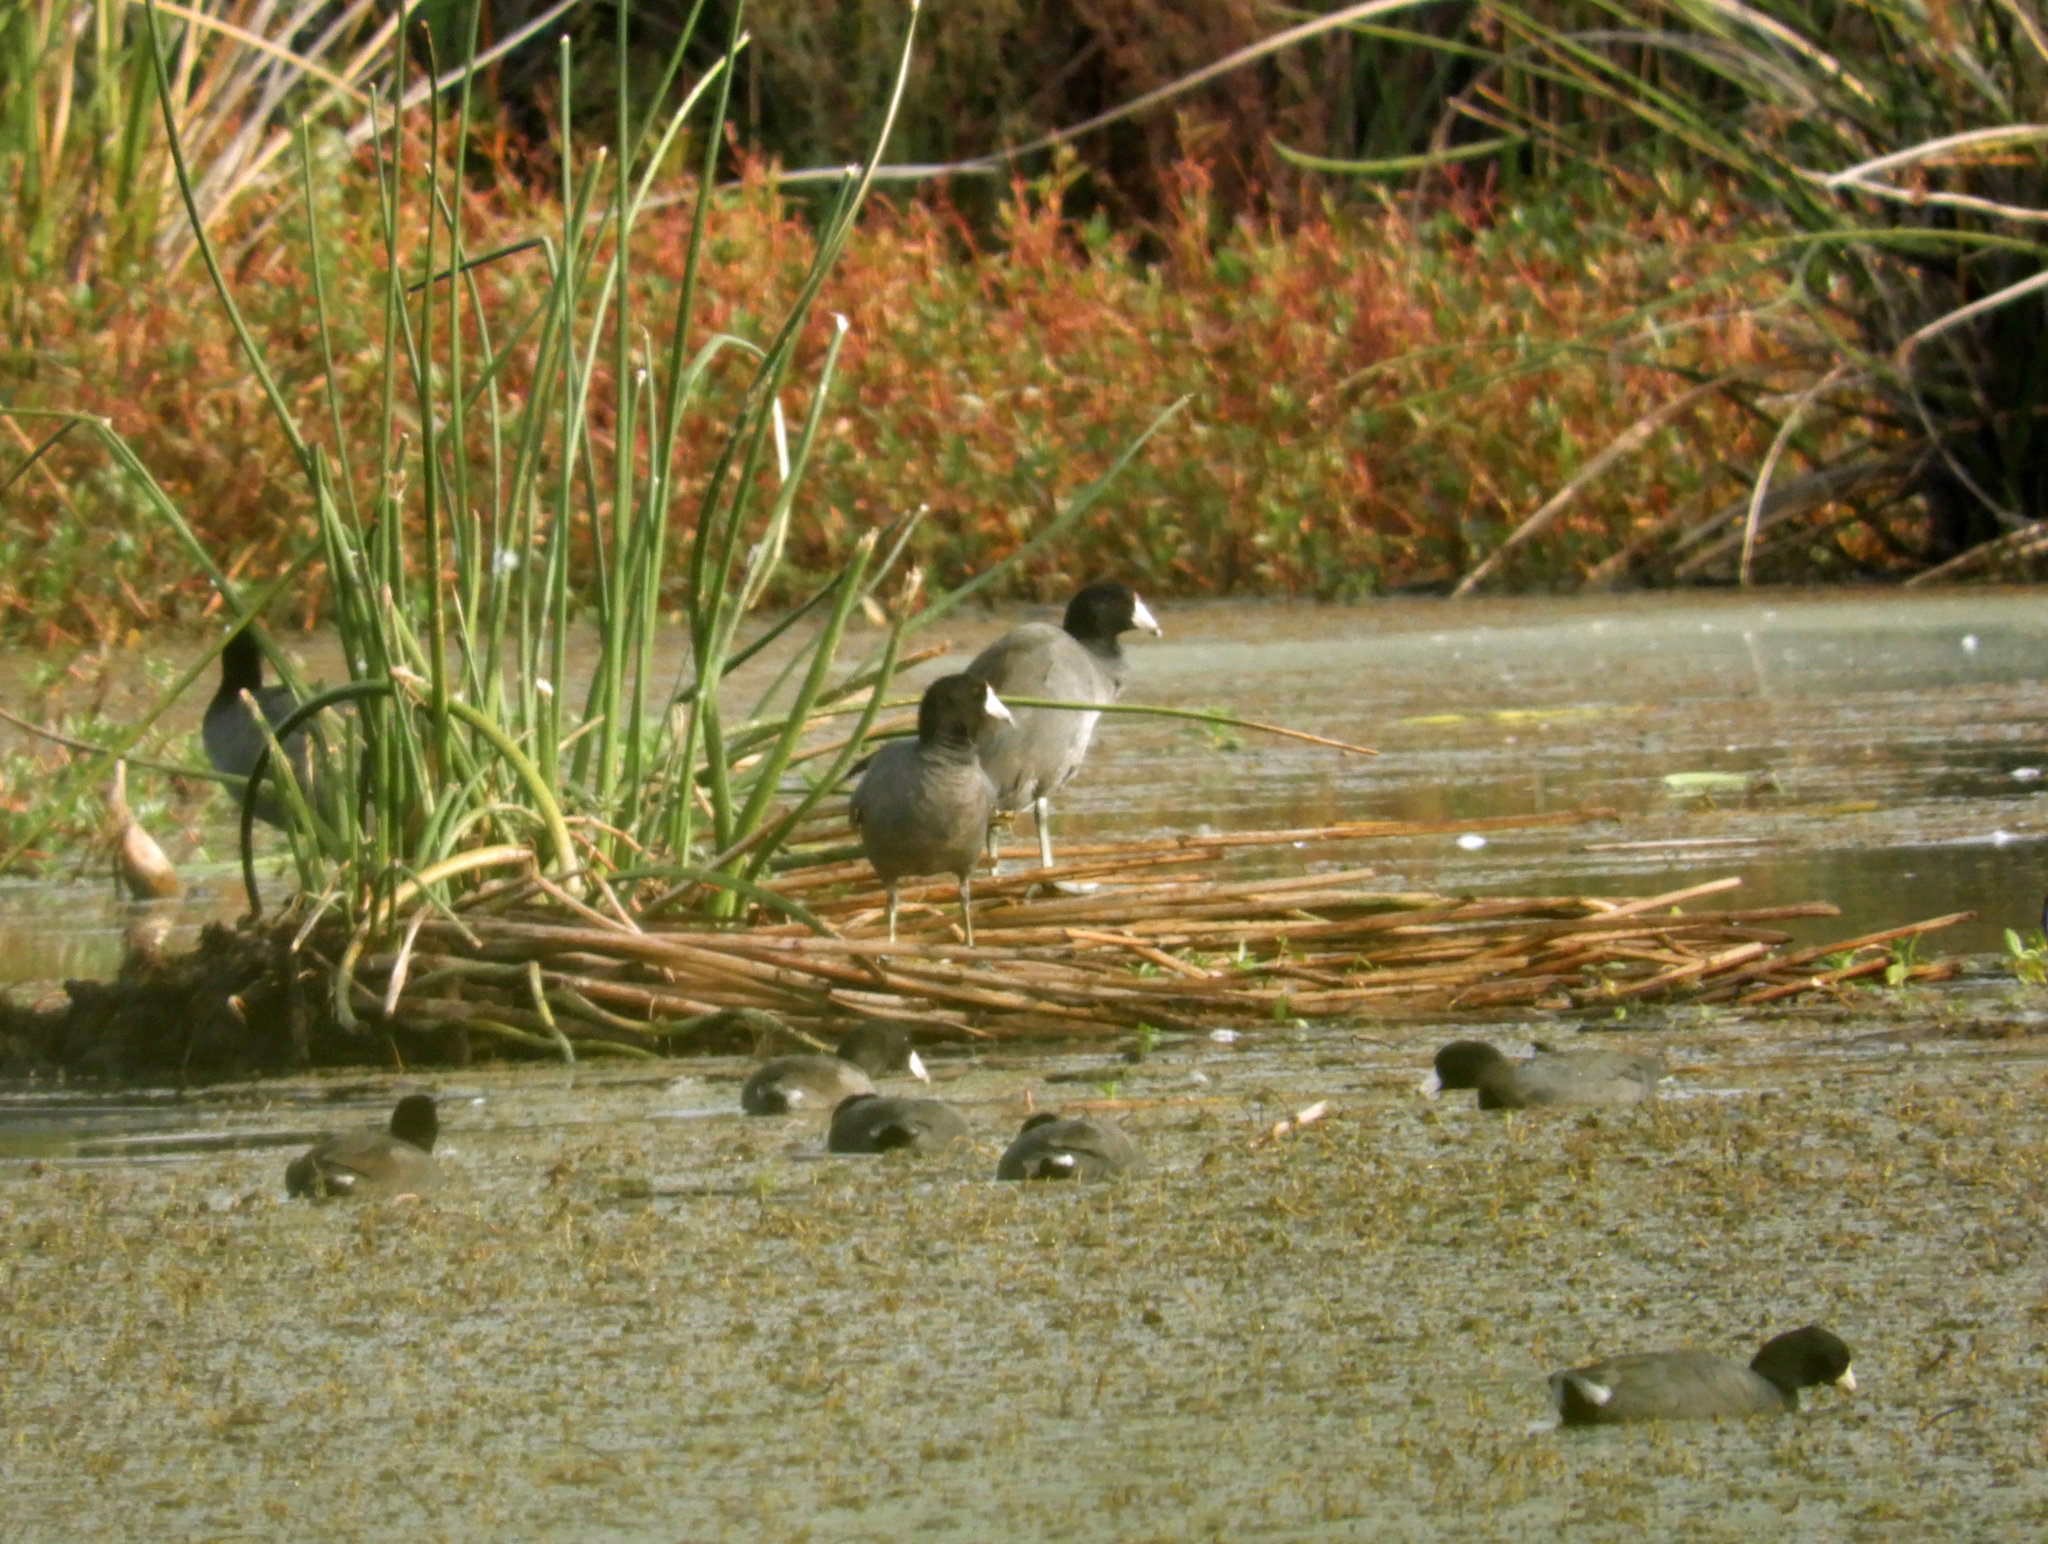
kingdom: Animalia
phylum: Chordata
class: Aves
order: Gruiformes
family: Rallidae
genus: Fulica
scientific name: Fulica americana
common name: American coot
